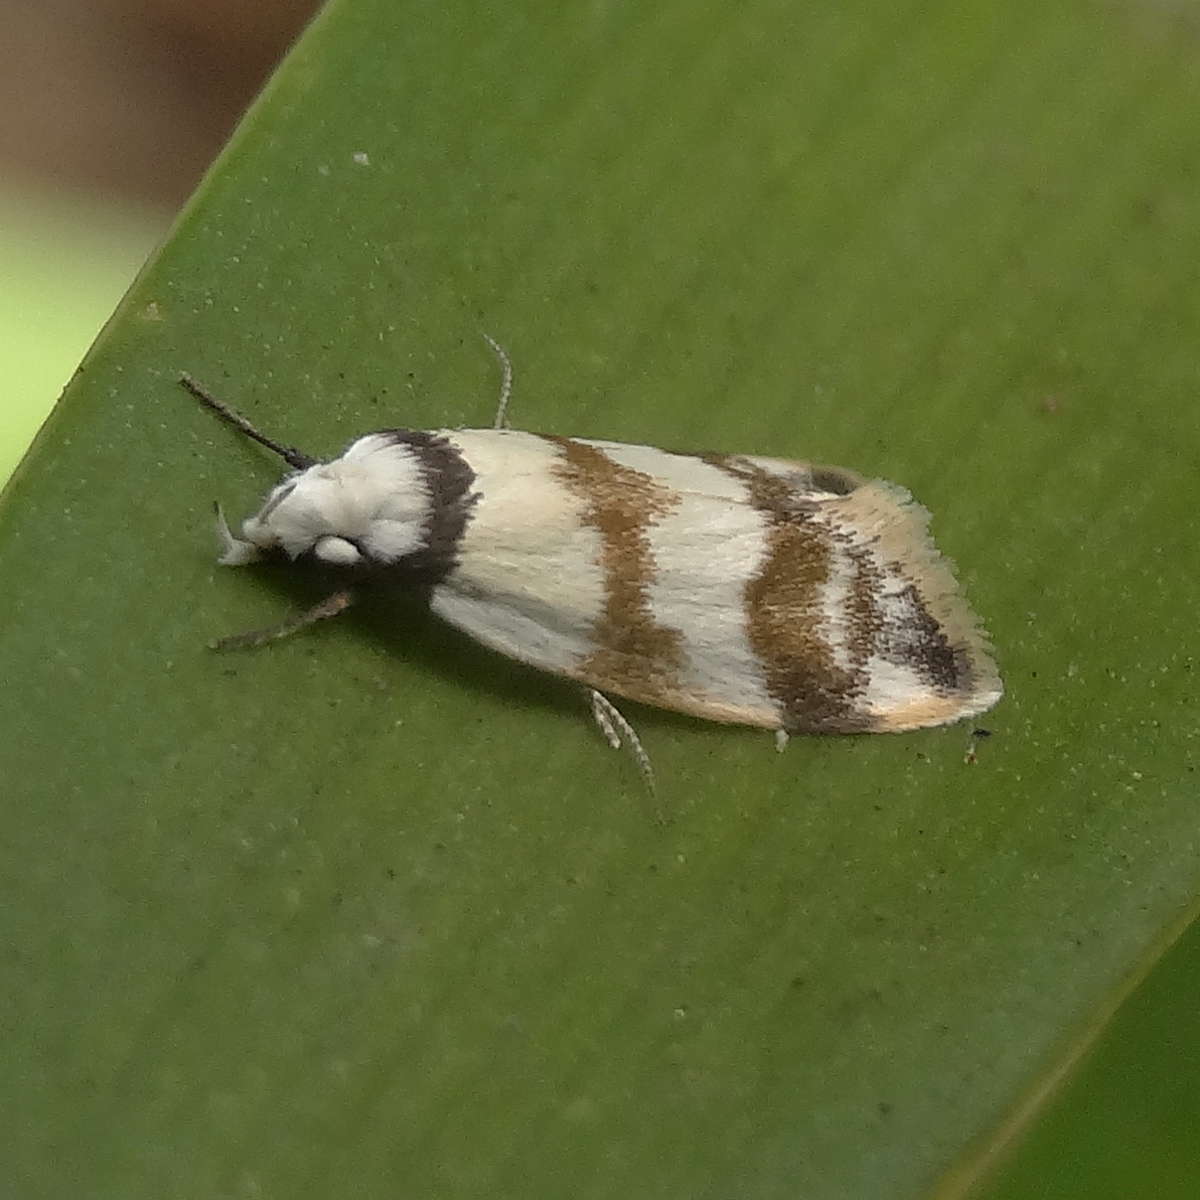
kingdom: Animalia
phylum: Arthropoda
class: Insecta
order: Lepidoptera
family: Oecophoridae
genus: Chezala
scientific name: Chezala brachypepla
